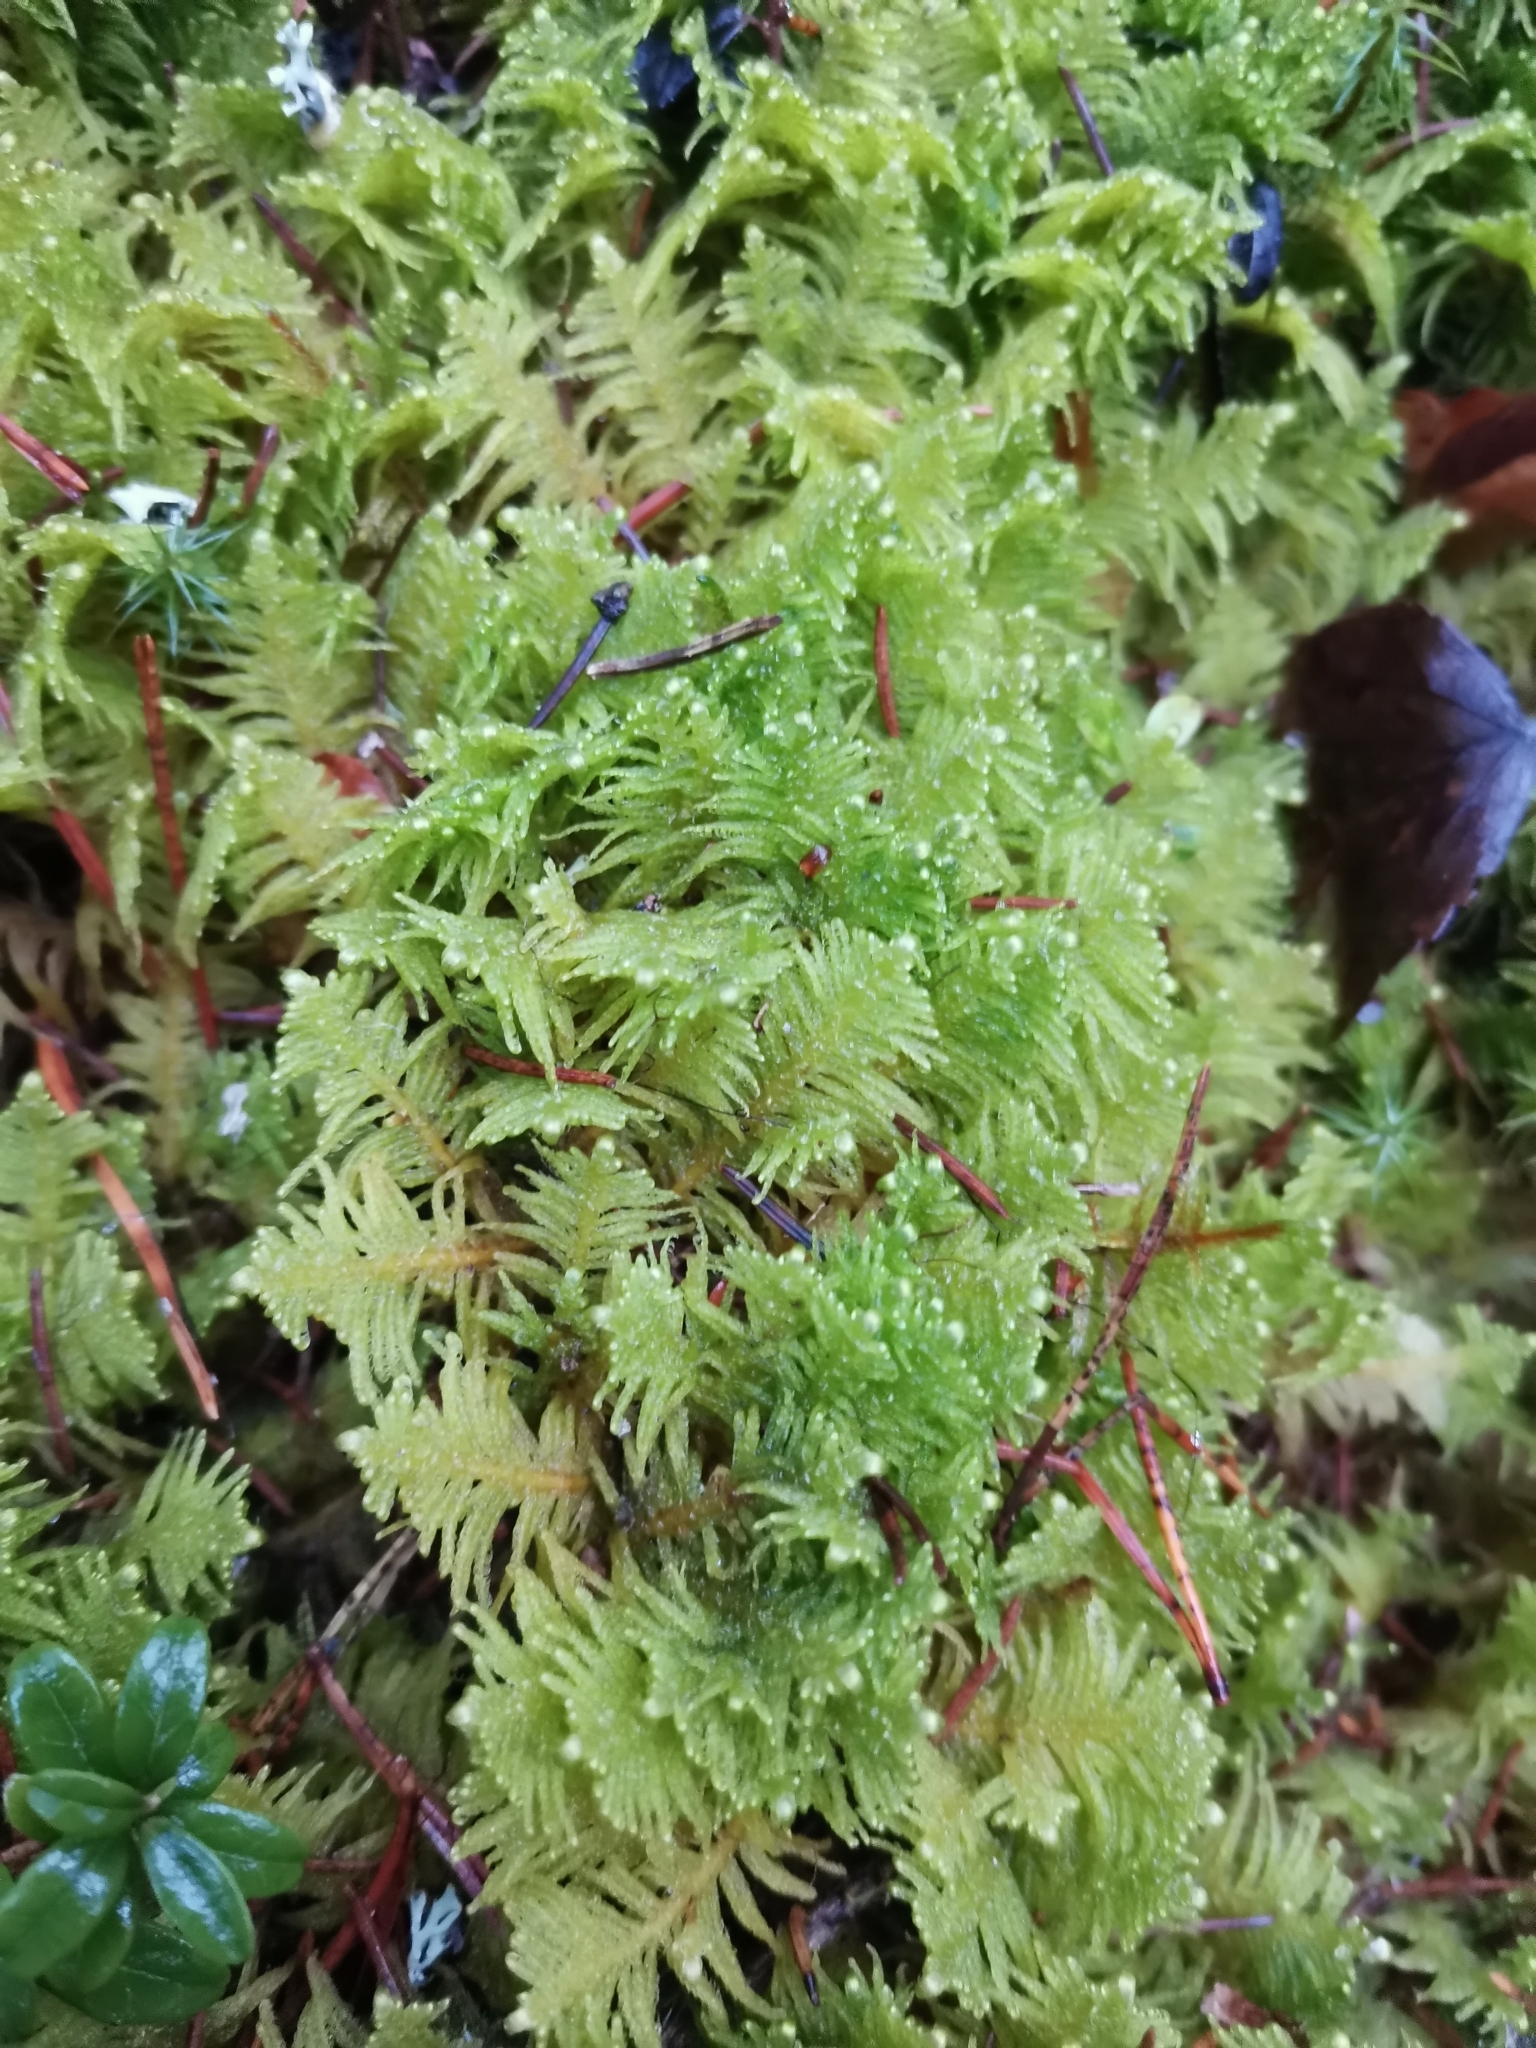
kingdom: Plantae
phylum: Bryophyta
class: Bryopsida
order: Hypnales
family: Pylaisiaceae
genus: Ptilium
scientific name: Ptilium crista-castrensis
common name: Knight's plume moss
